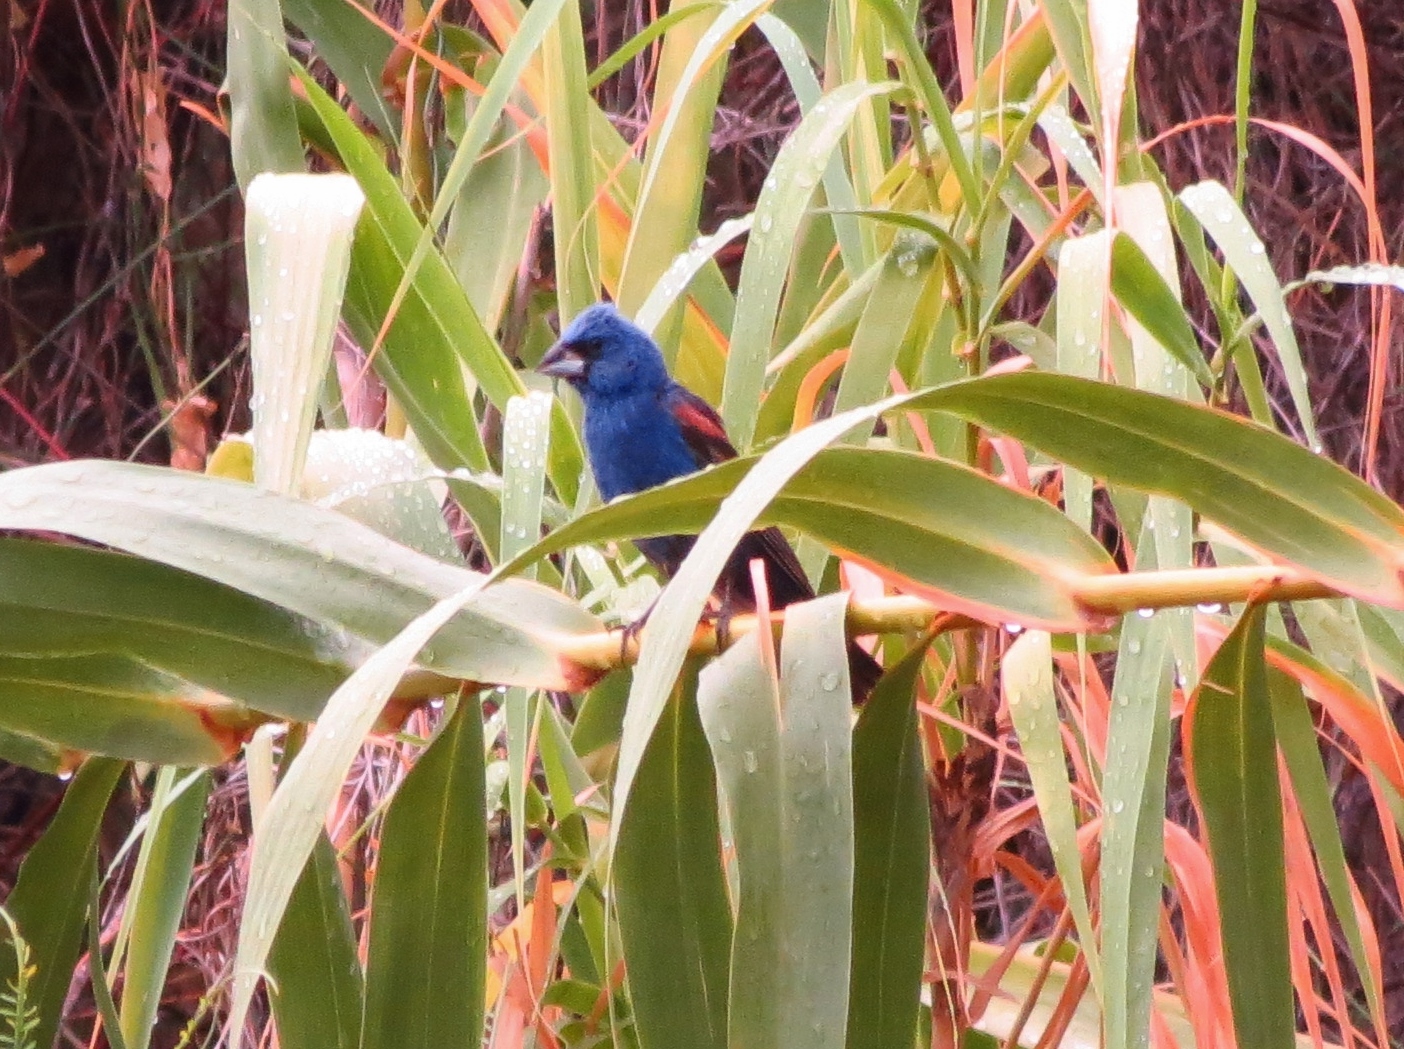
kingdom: Animalia
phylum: Chordata
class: Aves
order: Passeriformes
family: Cardinalidae
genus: Passerina
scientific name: Passerina caerulea
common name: Blue grosbeak
